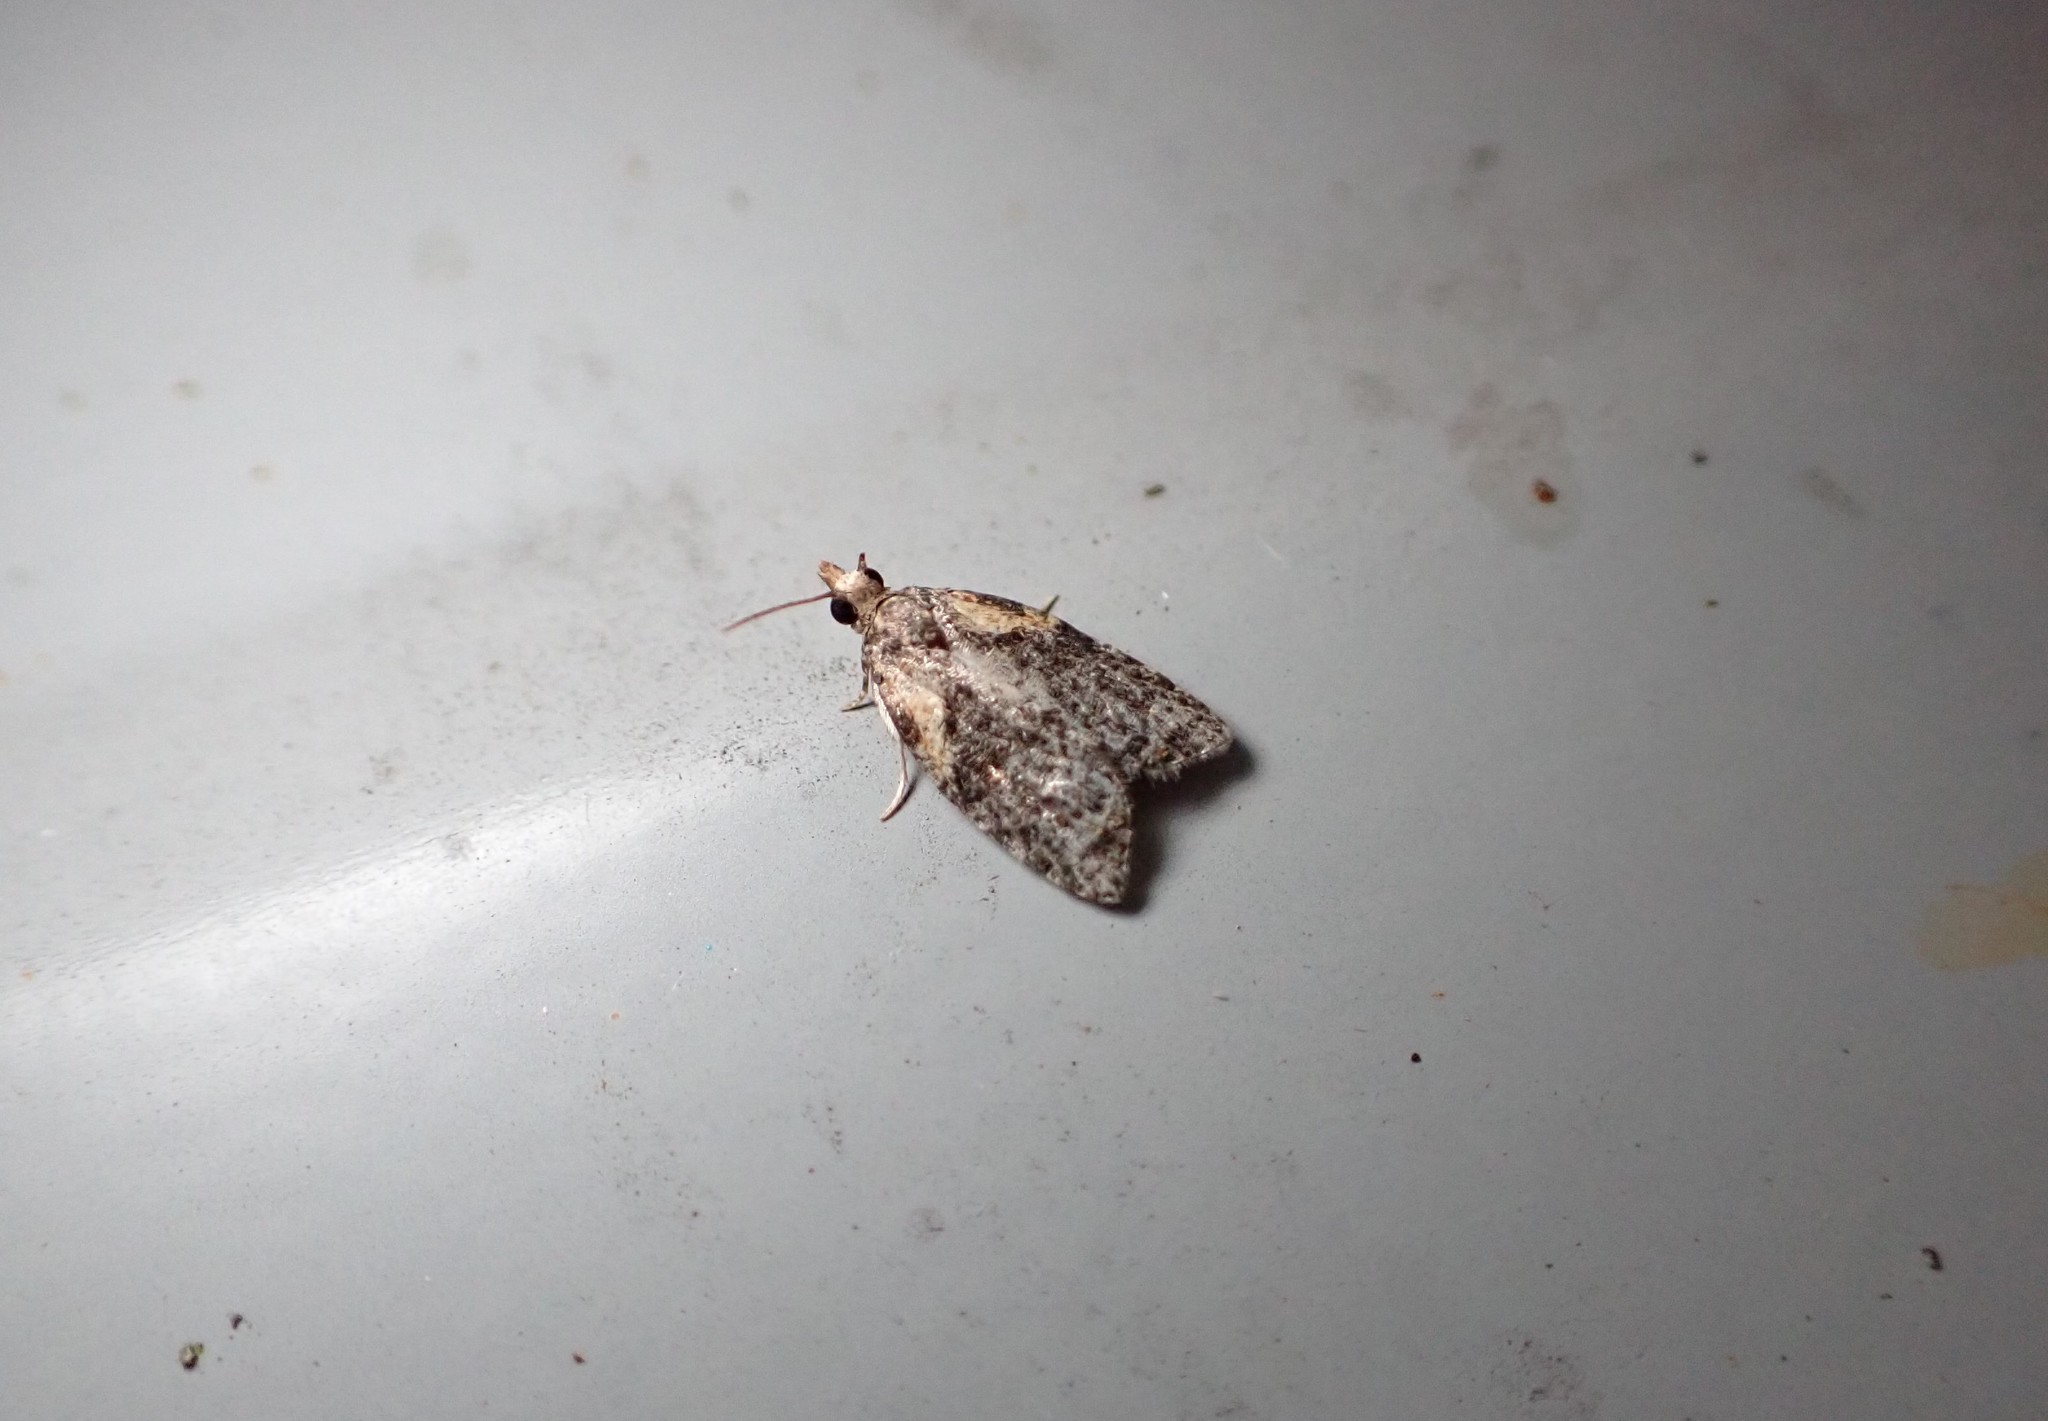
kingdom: Animalia
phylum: Arthropoda
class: Insecta
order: Lepidoptera
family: Tortricidae
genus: Capua
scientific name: Capua intractana
